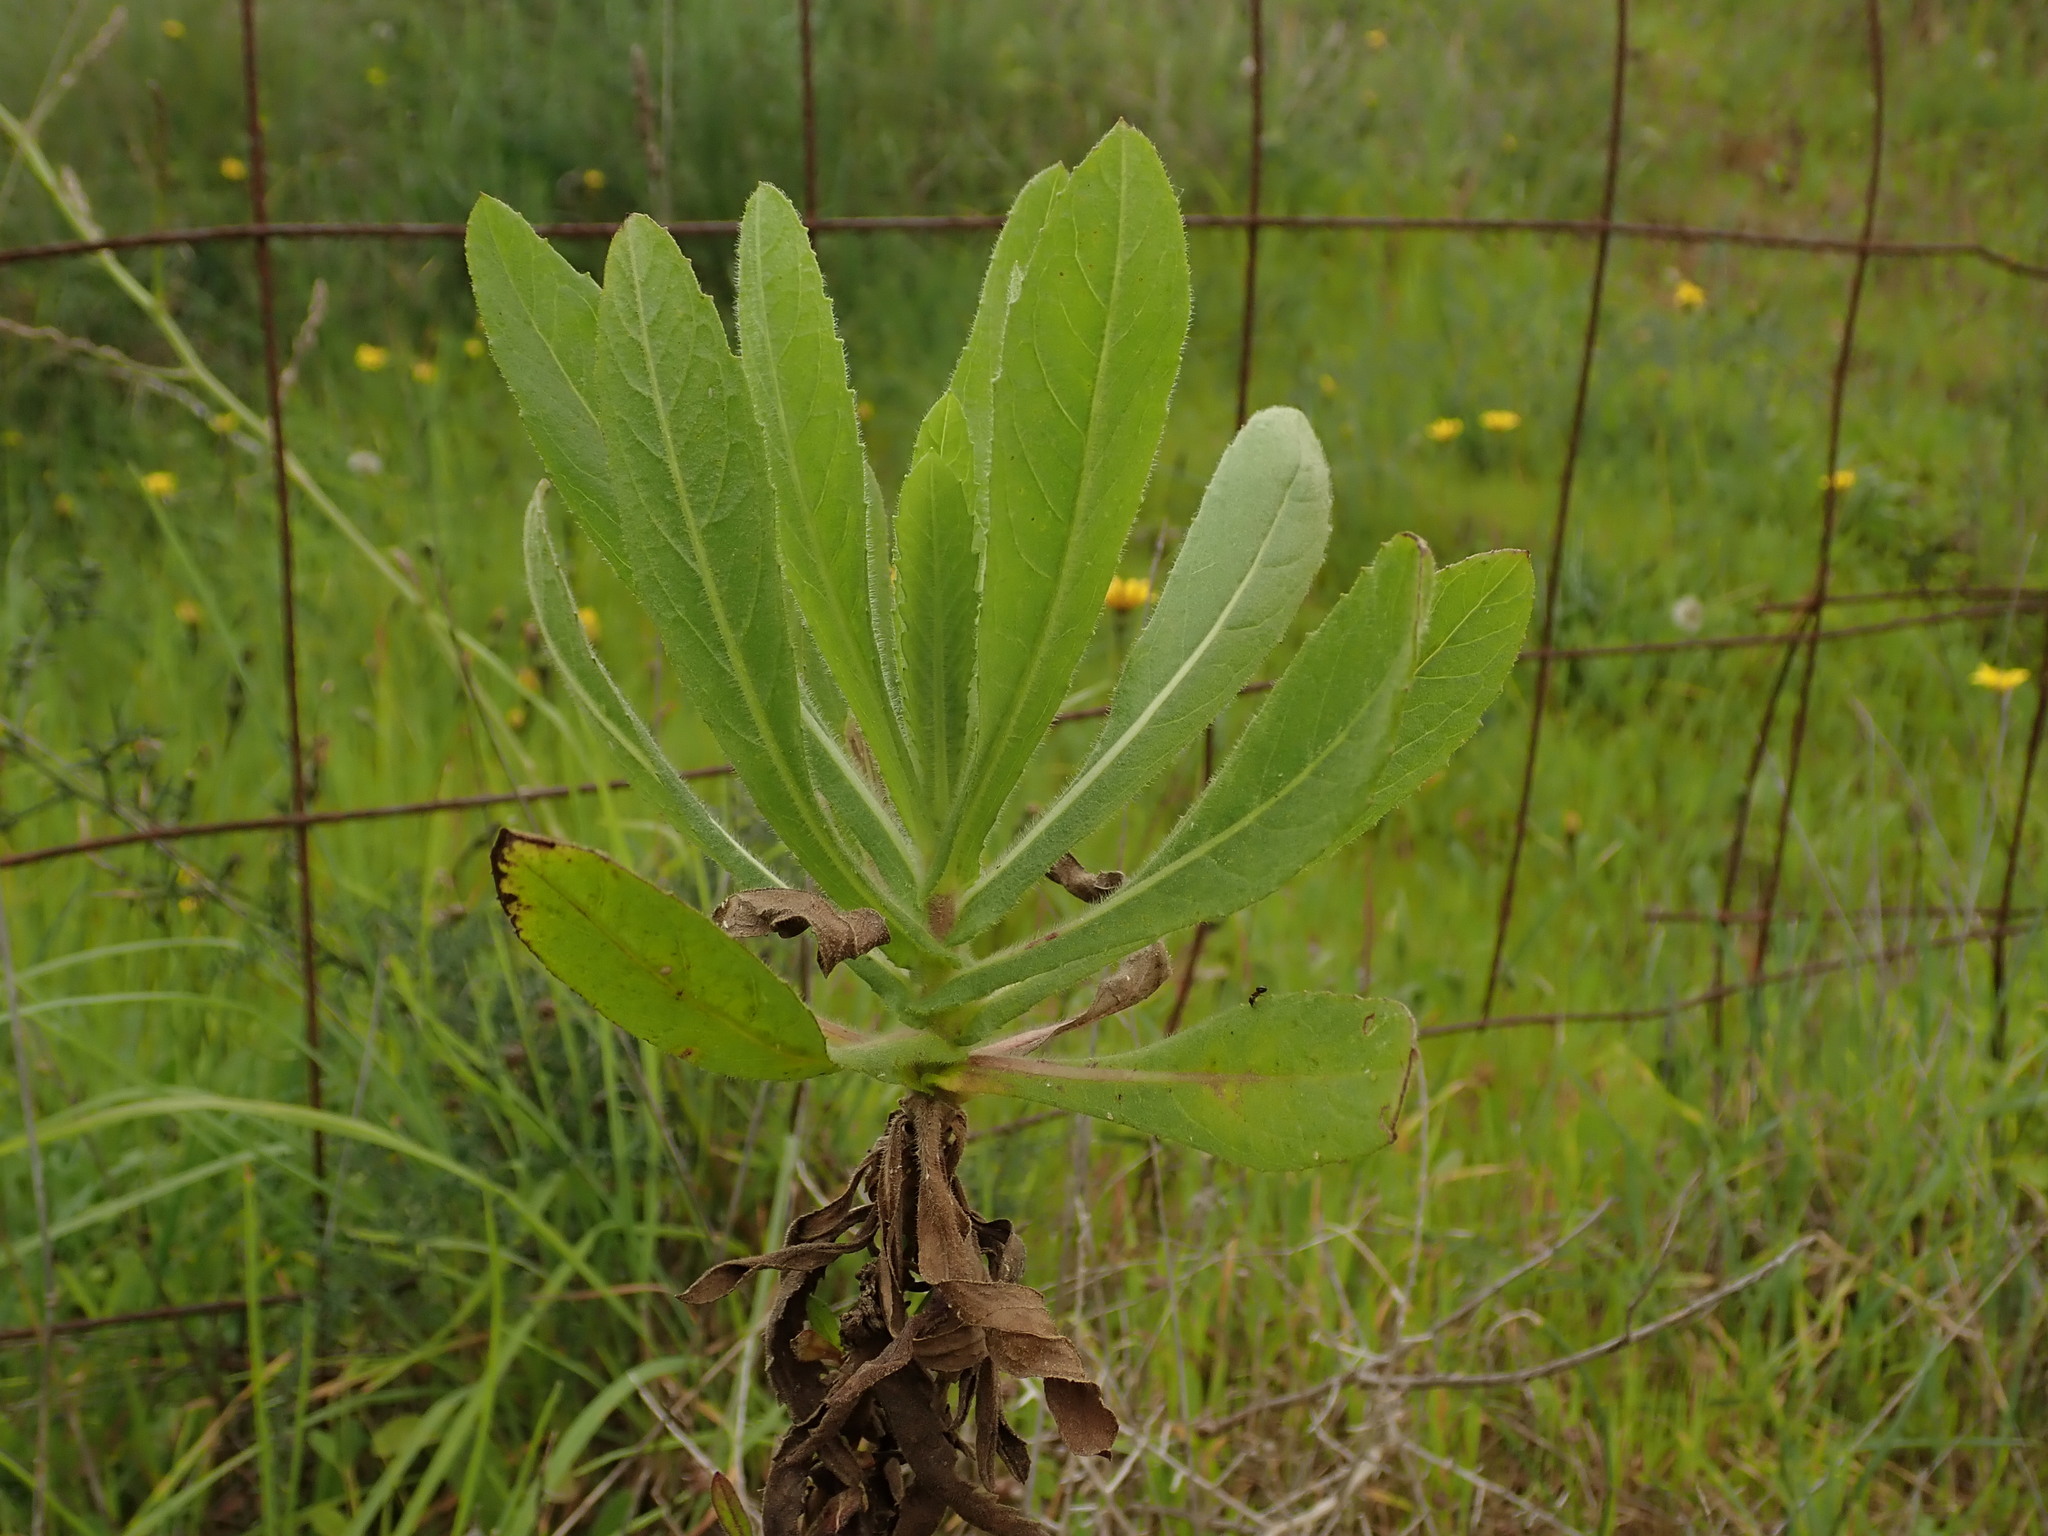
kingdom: Plantae
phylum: Tracheophyta
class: Magnoliopsida
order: Asterales
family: Asteraceae
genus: Dittrichia
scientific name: Dittrichia viscosa
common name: Woody fleabane
